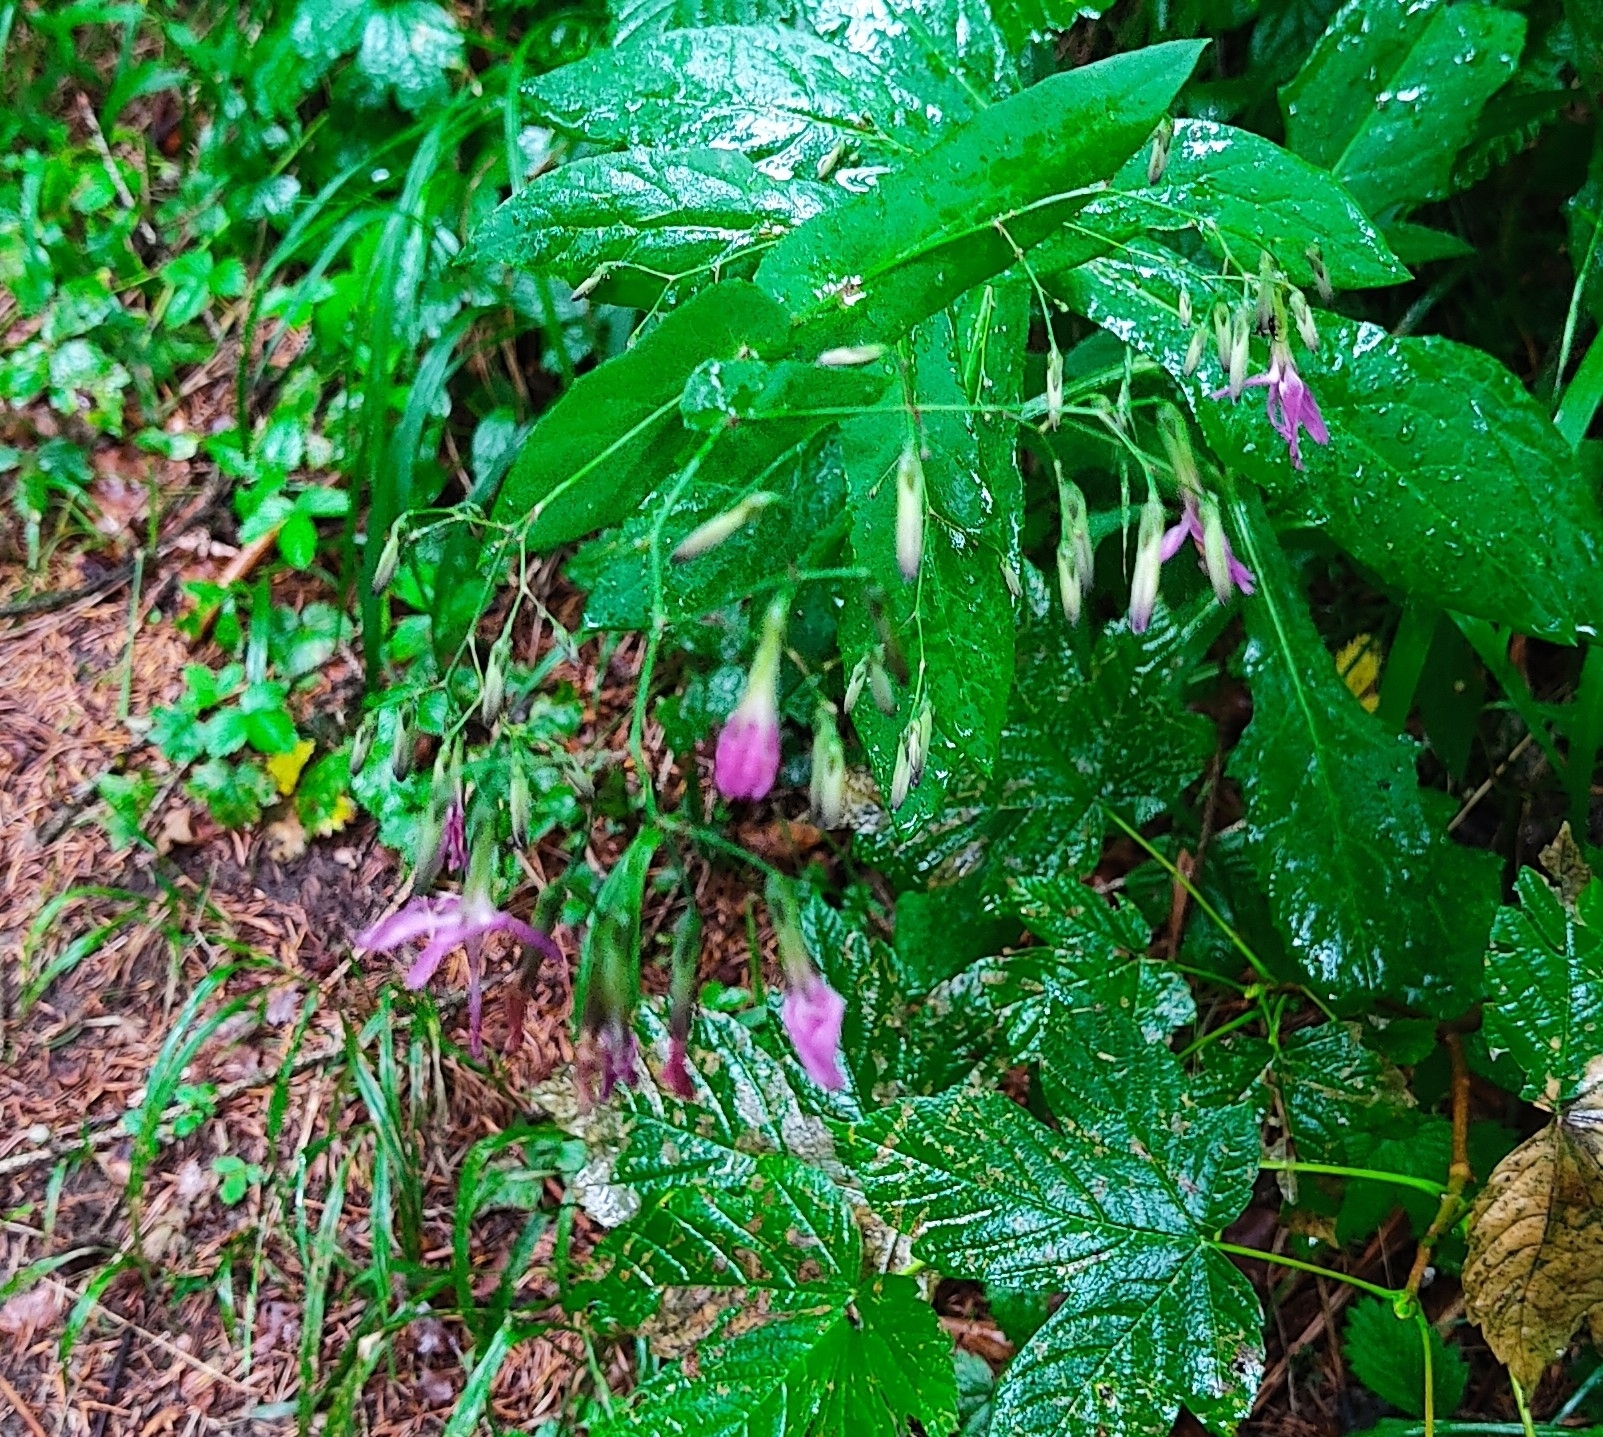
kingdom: Plantae
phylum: Tracheophyta
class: Magnoliopsida
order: Asterales
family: Asteraceae
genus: Prenanthes
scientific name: Prenanthes purpurea
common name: Purple lettuce
